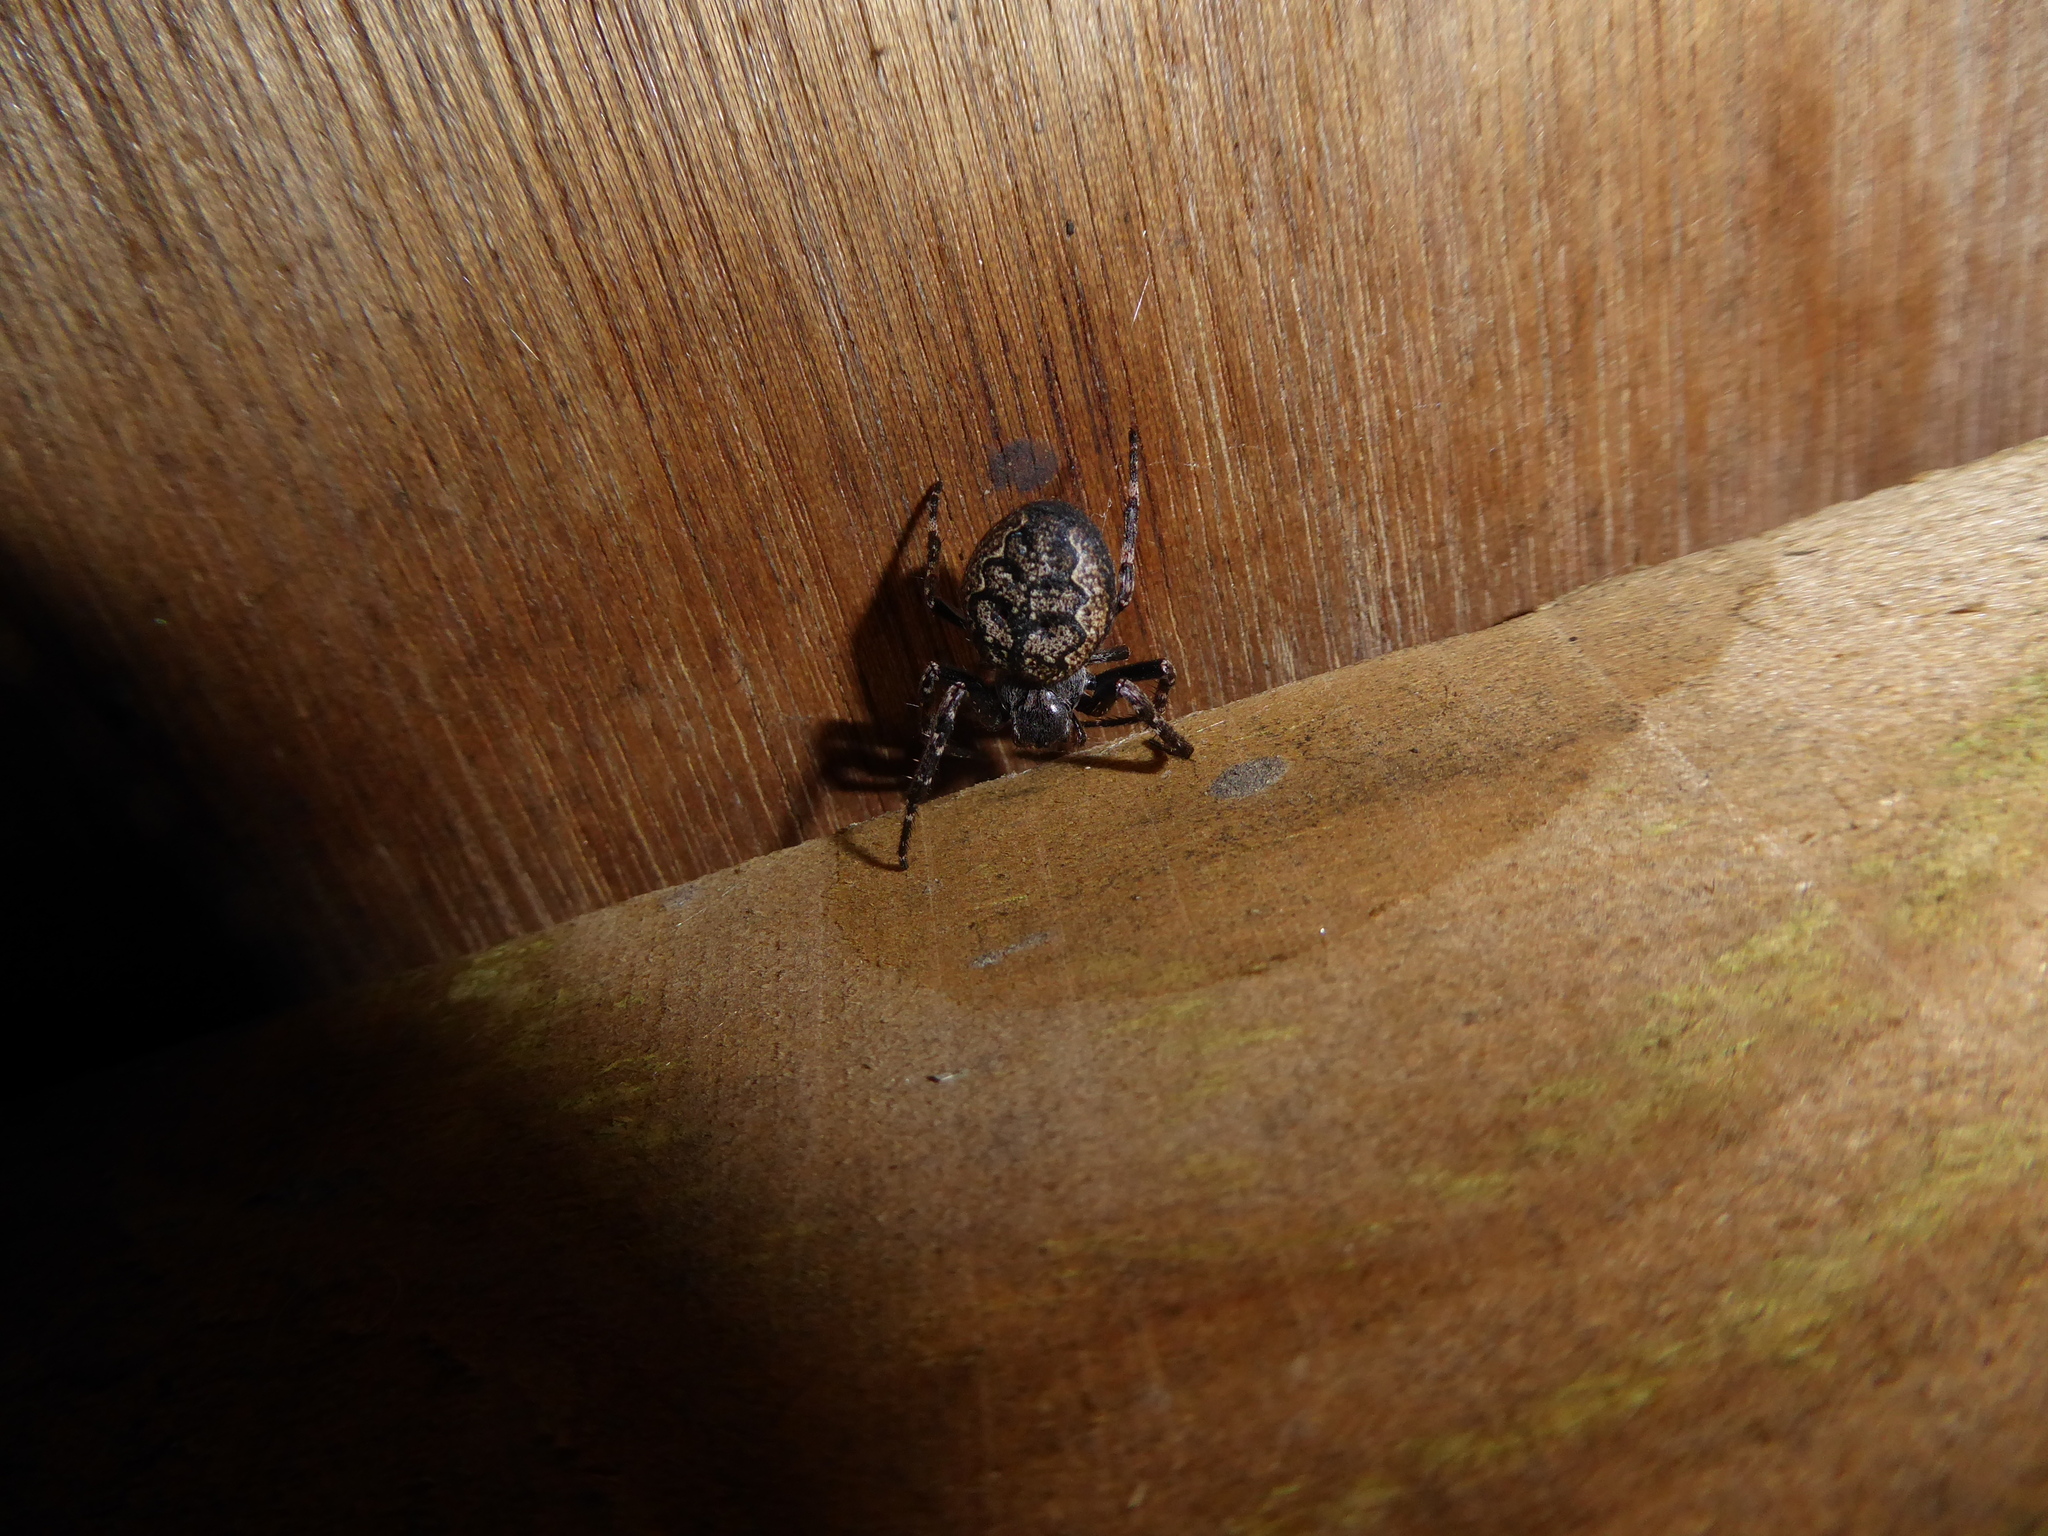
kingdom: Animalia
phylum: Arthropoda
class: Arachnida
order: Araneae
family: Araneidae
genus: Nuctenea
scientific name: Nuctenea umbratica
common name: Toad spider
